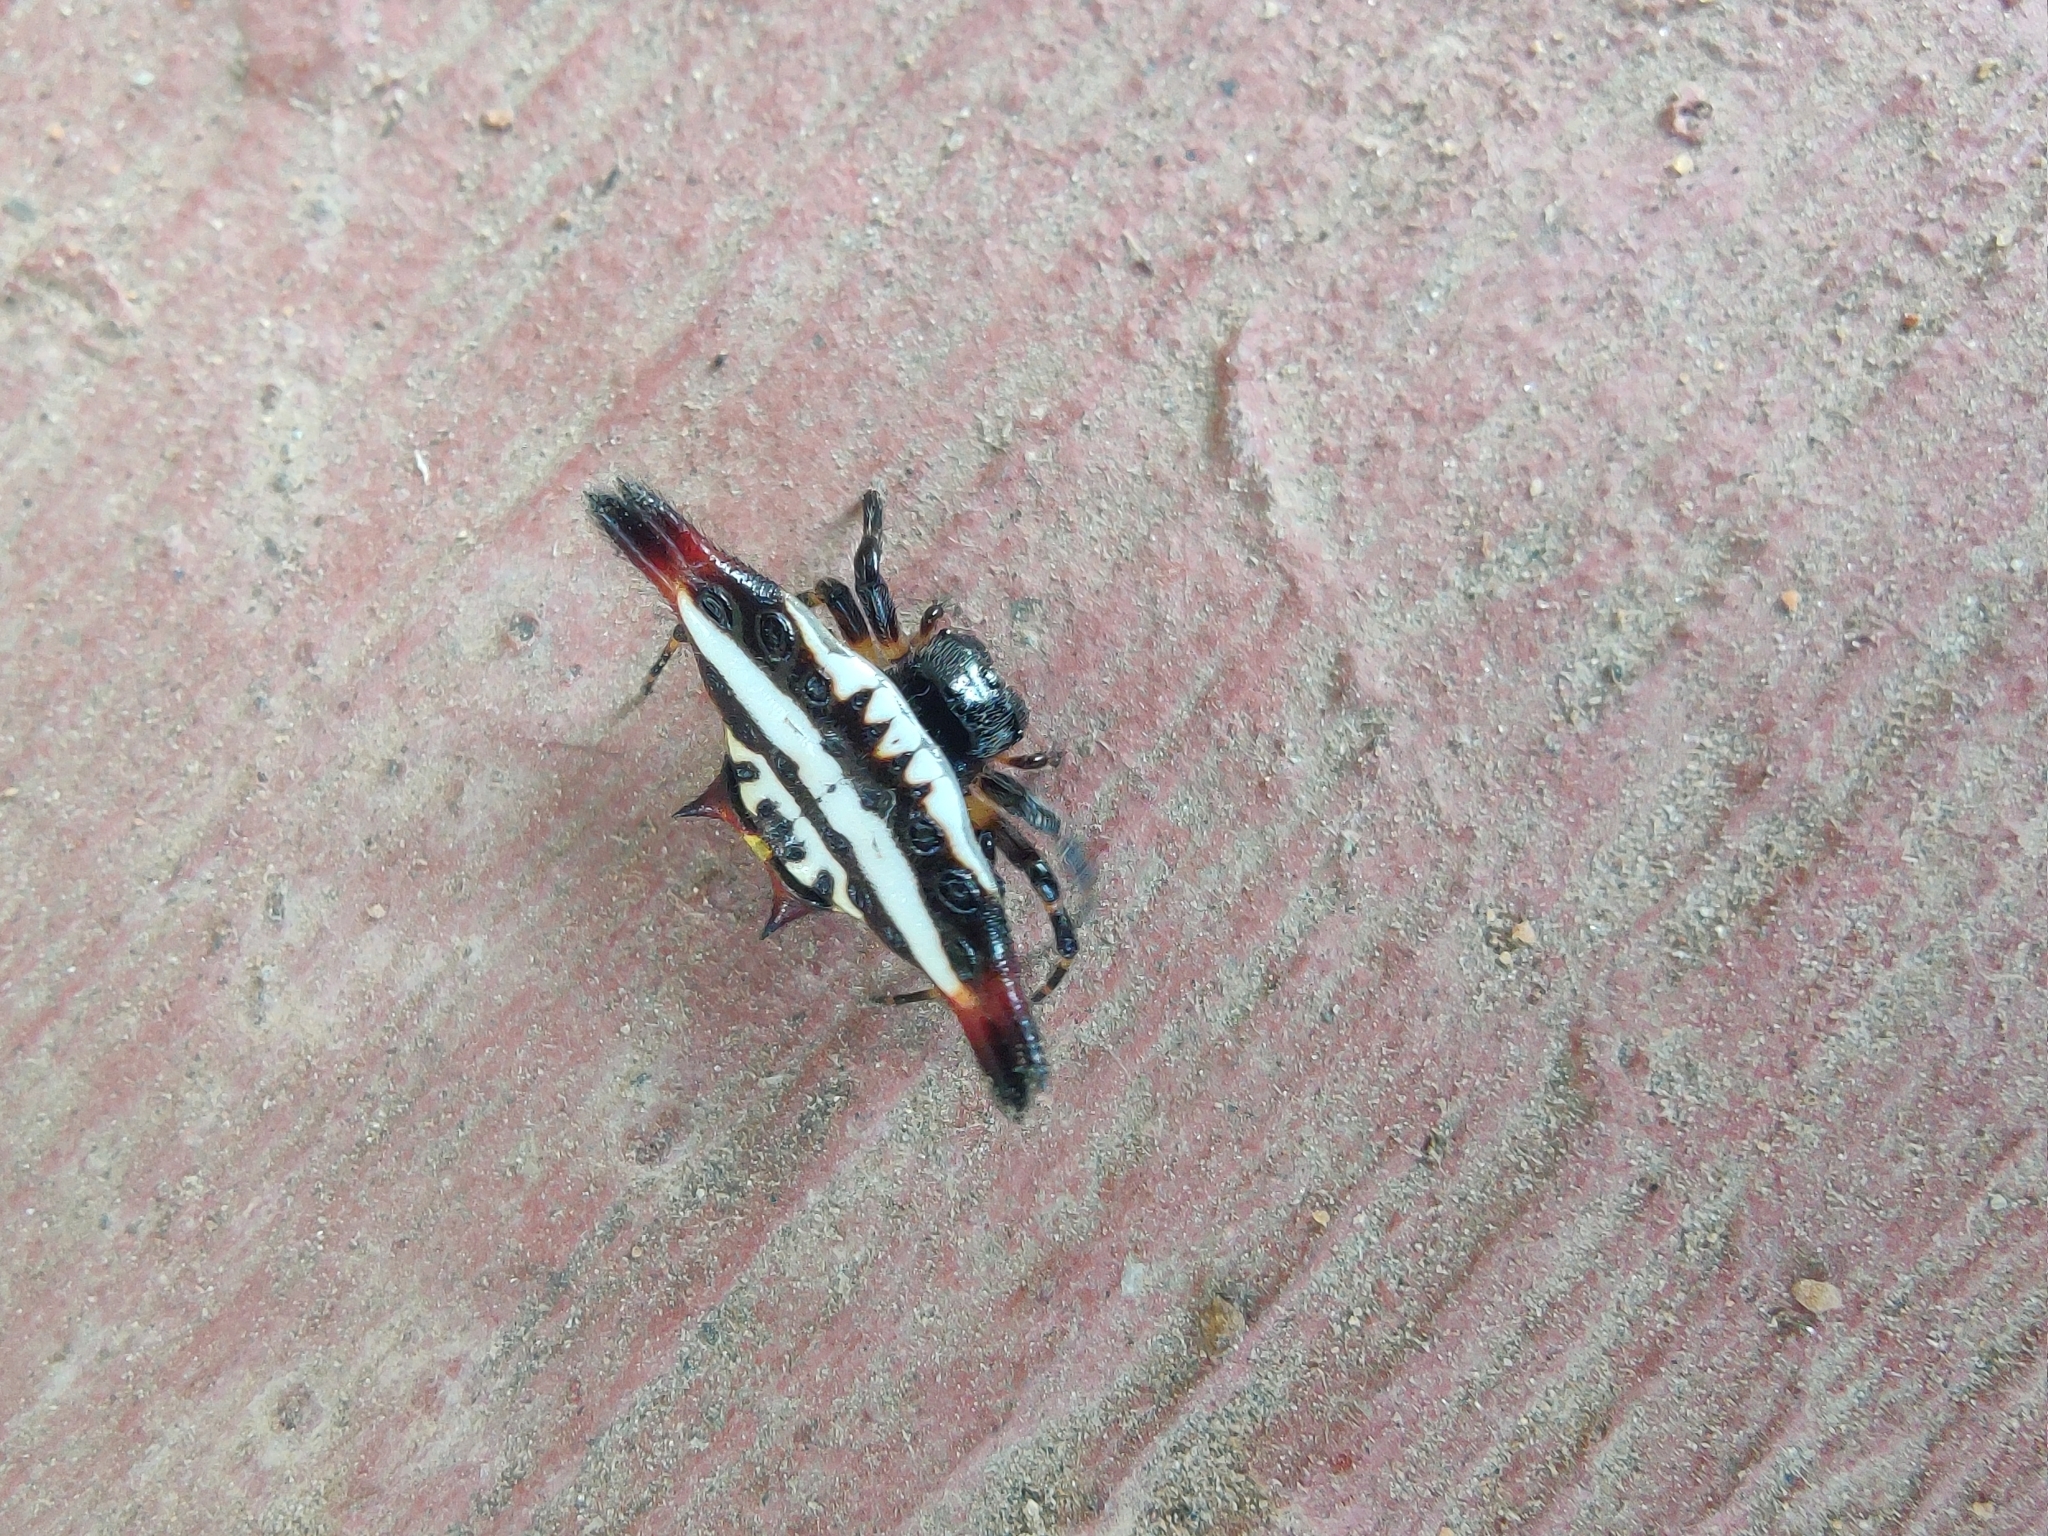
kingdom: Animalia
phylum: Arthropoda
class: Arachnida
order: Araneae
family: Araneidae
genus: Gasteracantha
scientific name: Gasteracantha geminata
